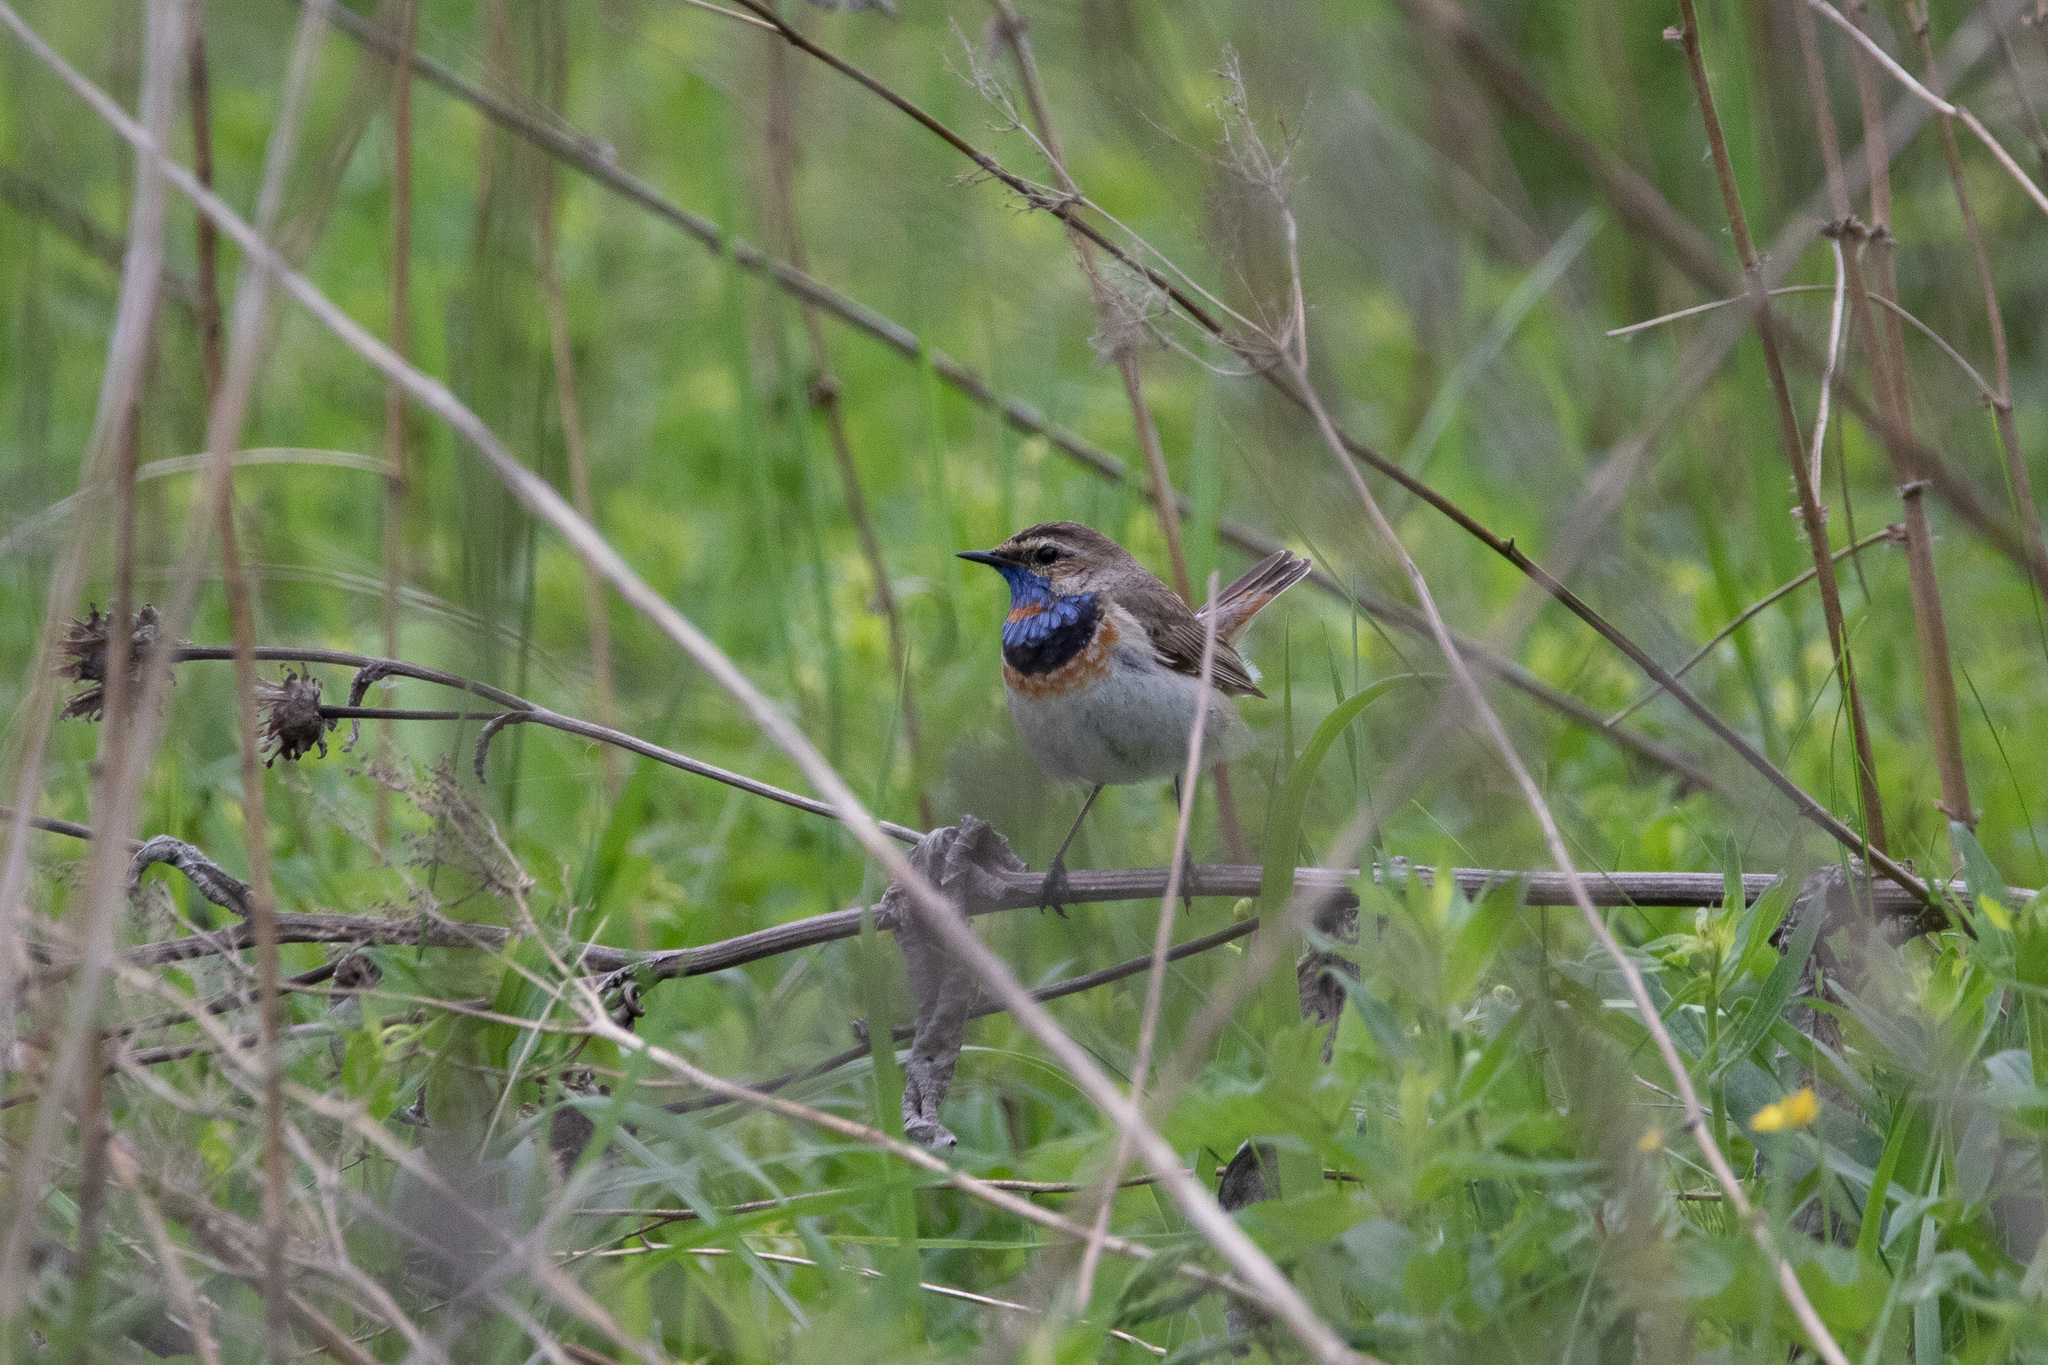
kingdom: Animalia
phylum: Chordata
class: Aves
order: Passeriformes
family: Muscicapidae
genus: Luscinia
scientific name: Luscinia svecica
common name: Bluethroat
